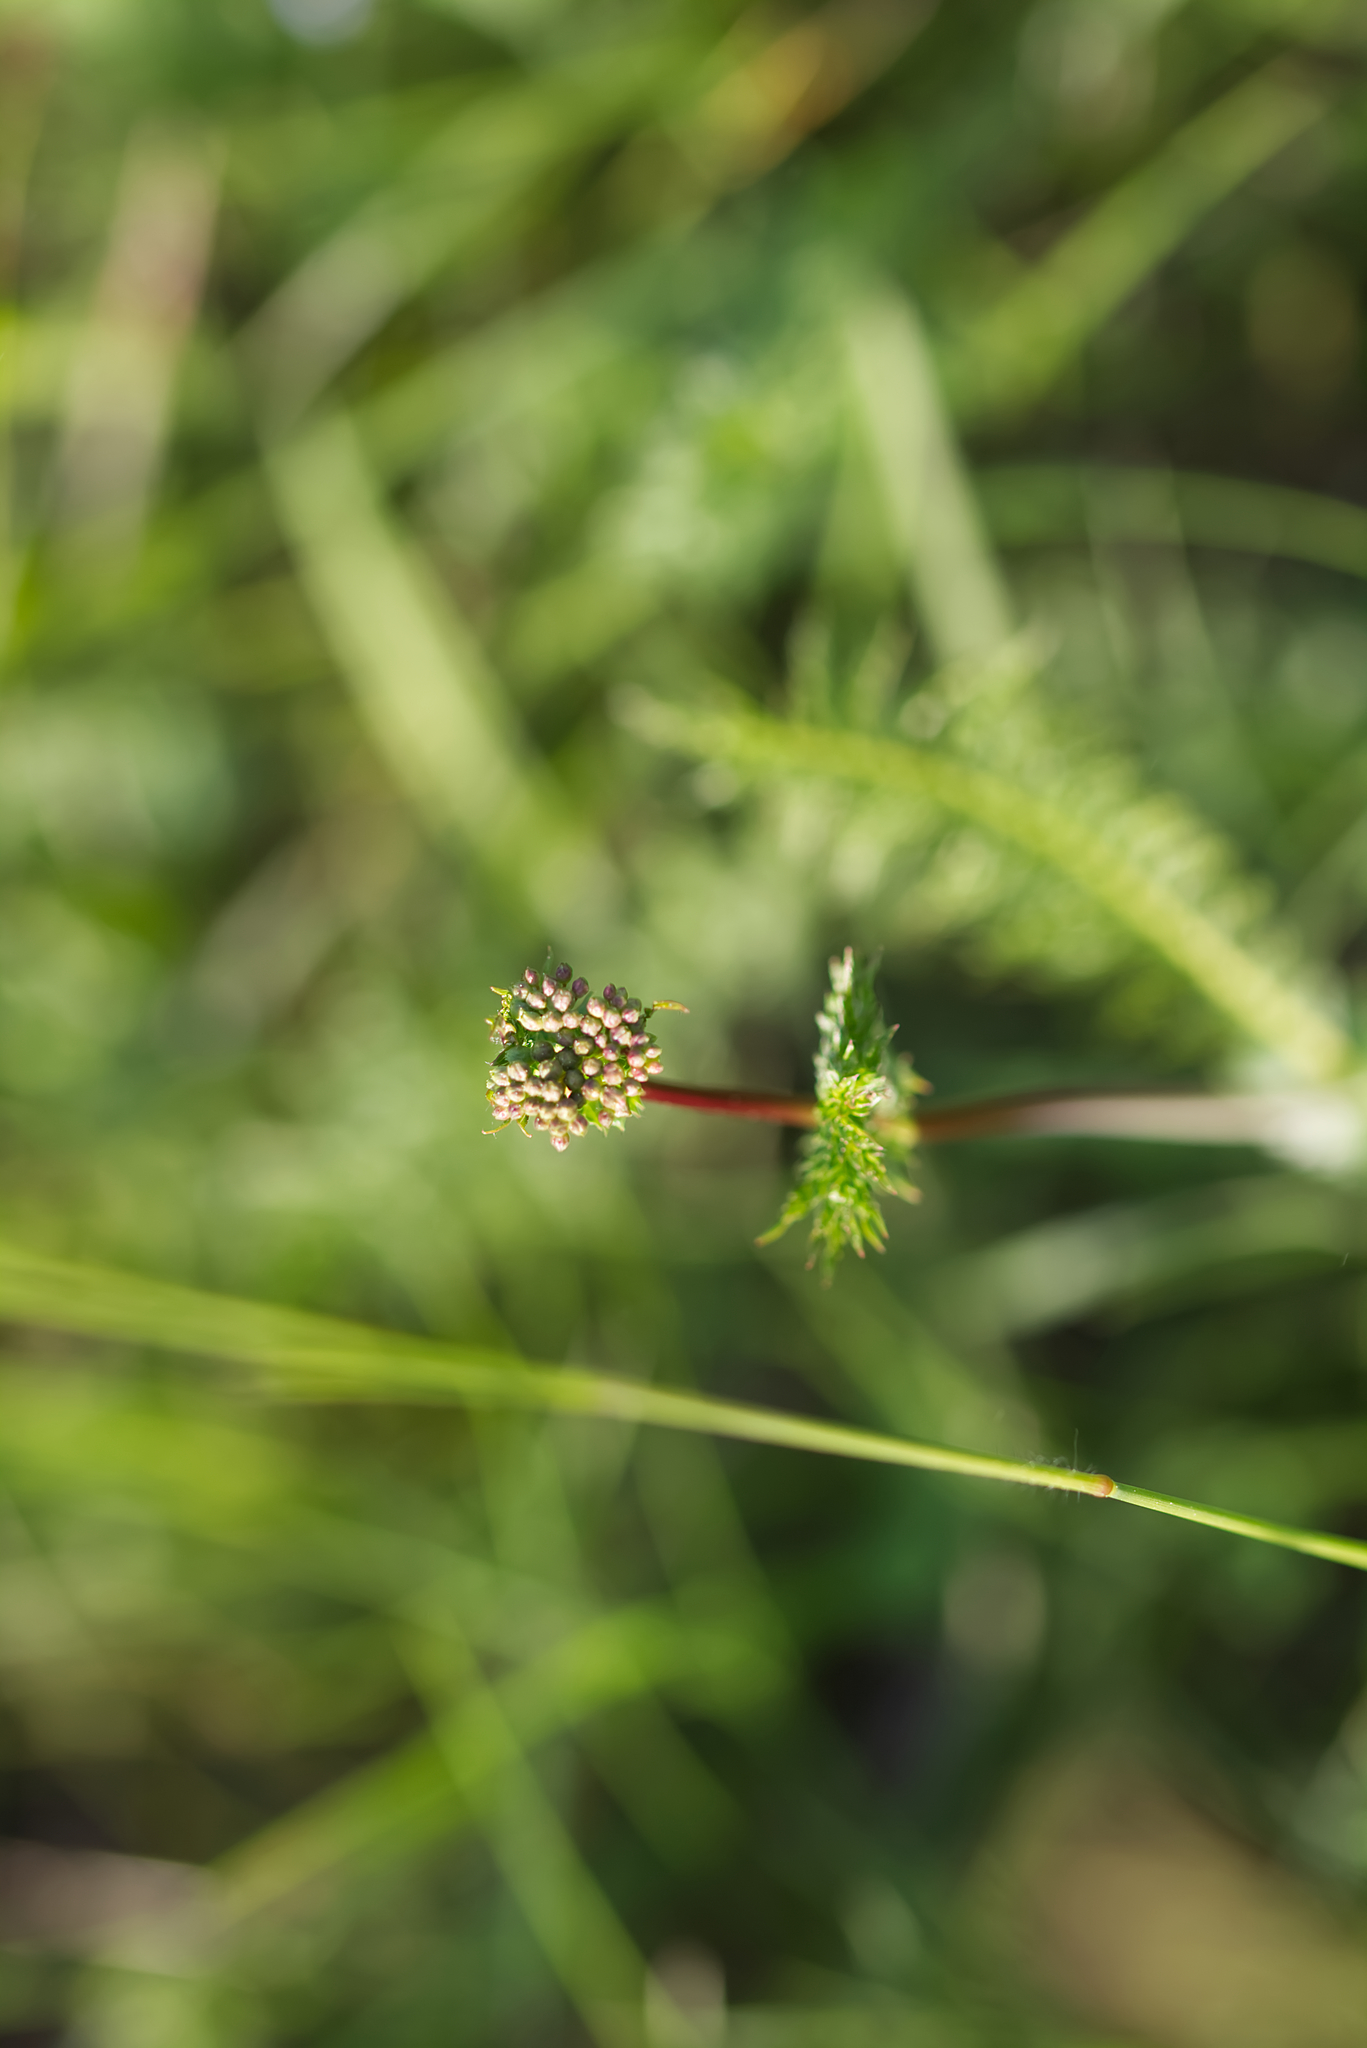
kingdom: Plantae
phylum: Tracheophyta
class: Magnoliopsida
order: Rosales
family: Rosaceae
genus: Filipendula
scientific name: Filipendula vulgaris
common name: Dropwort
